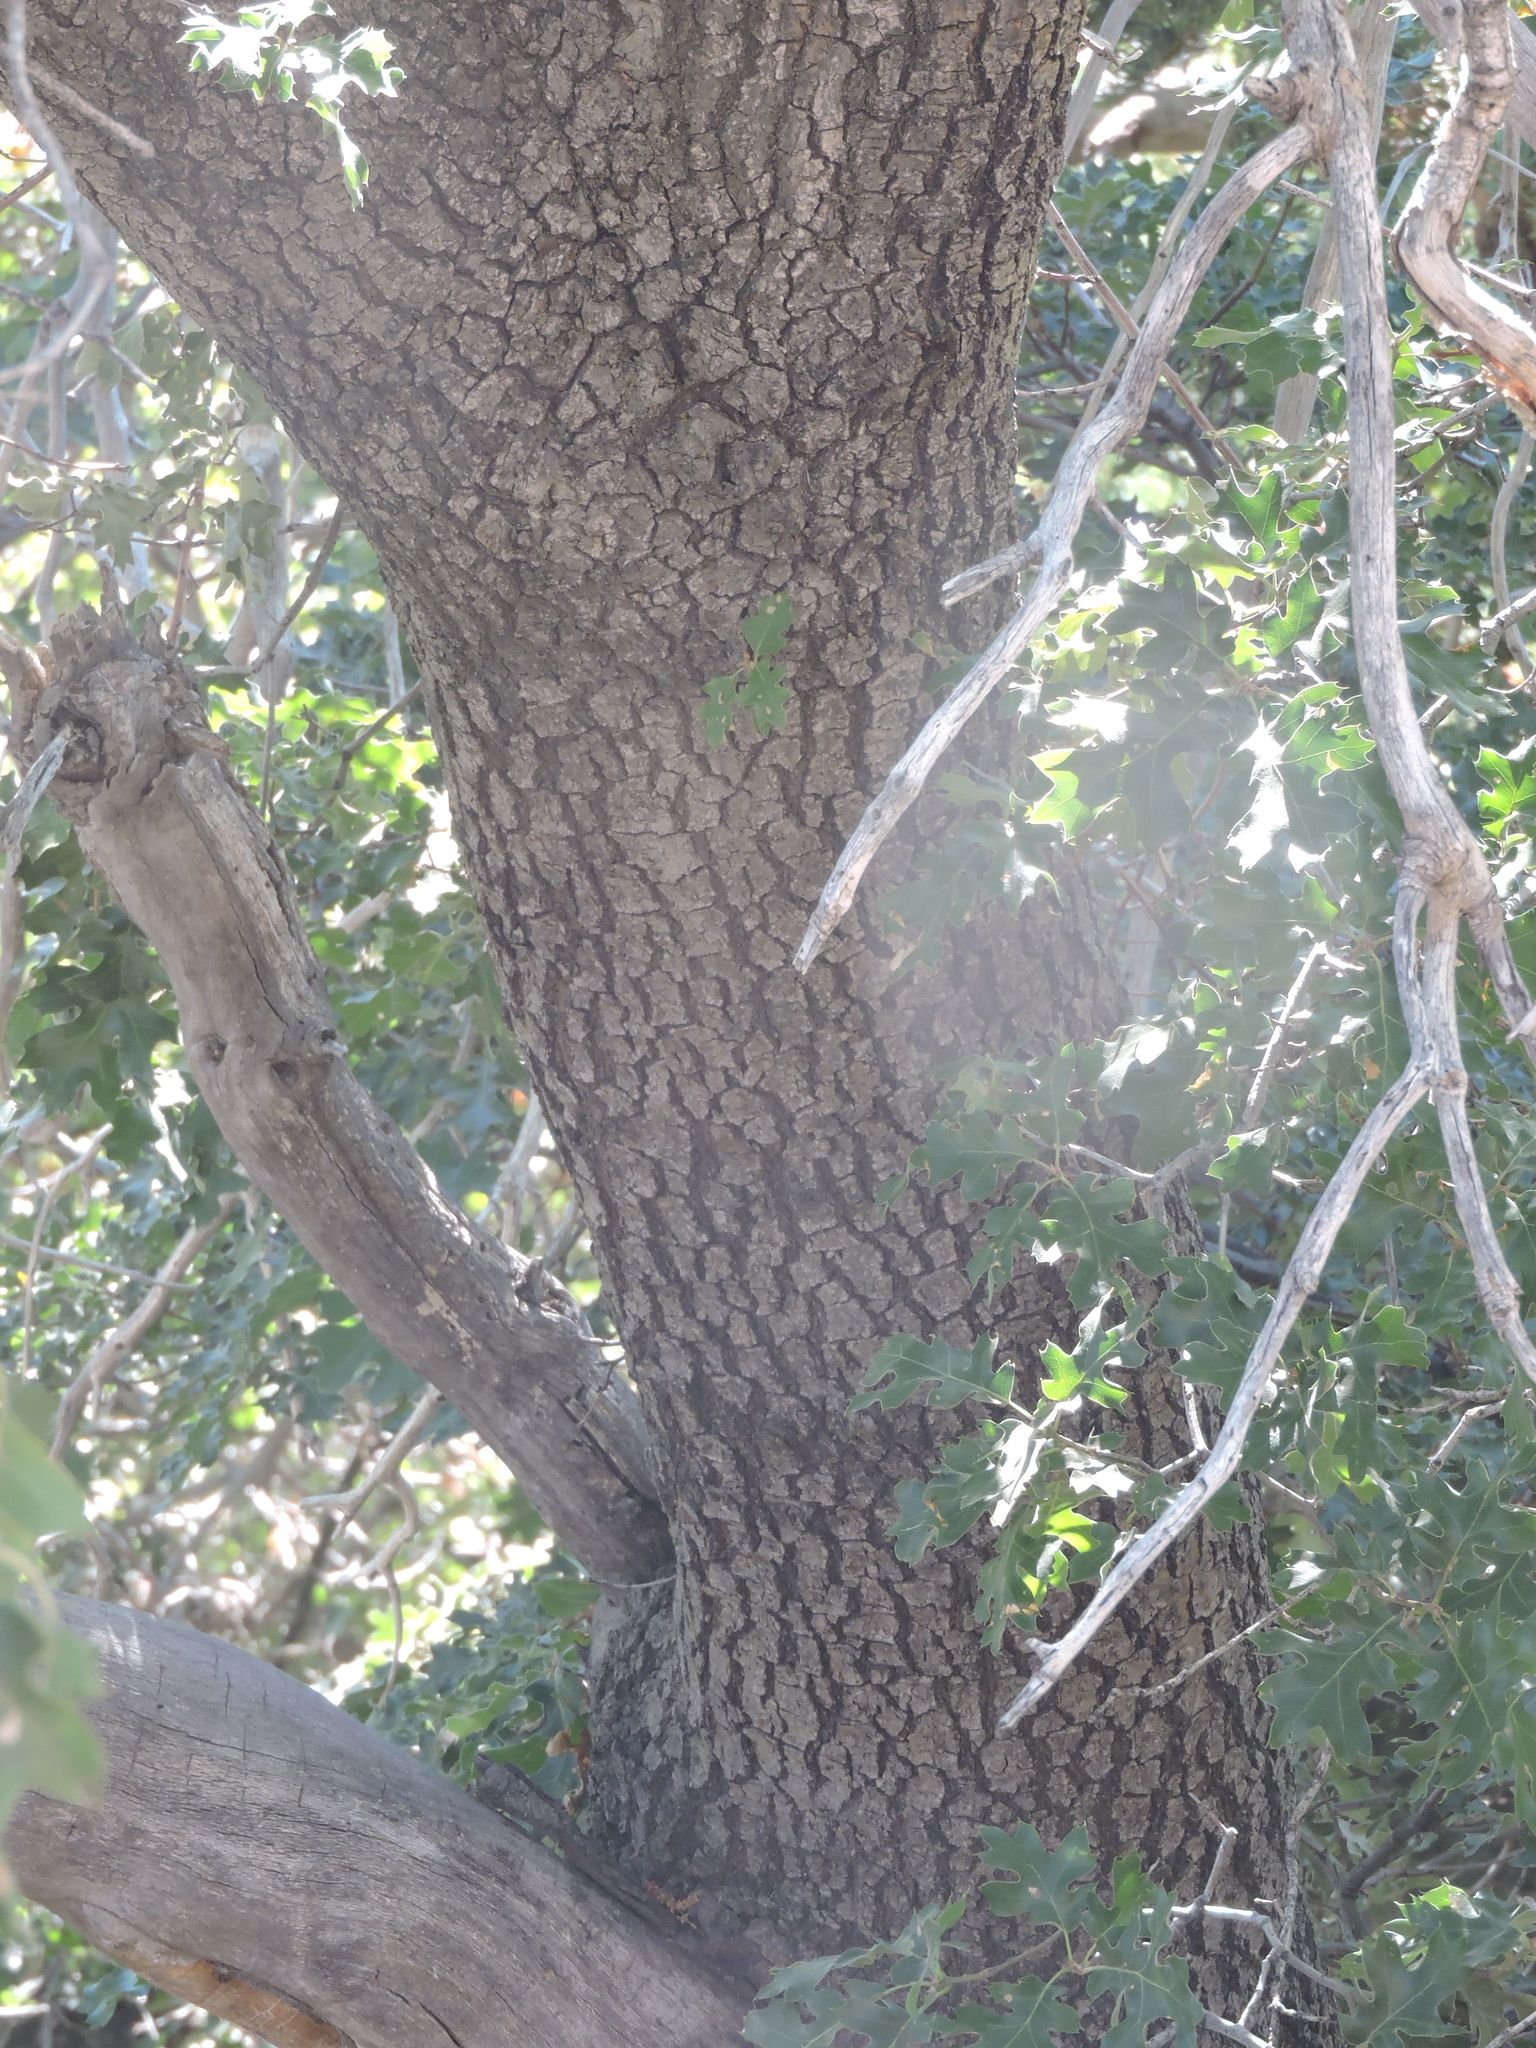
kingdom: Plantae
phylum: Tracheophyta
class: Magnoliopsida
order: Fagales
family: Fagaceae
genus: Quercus
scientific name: Quercus kelloggii
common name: California black oak
